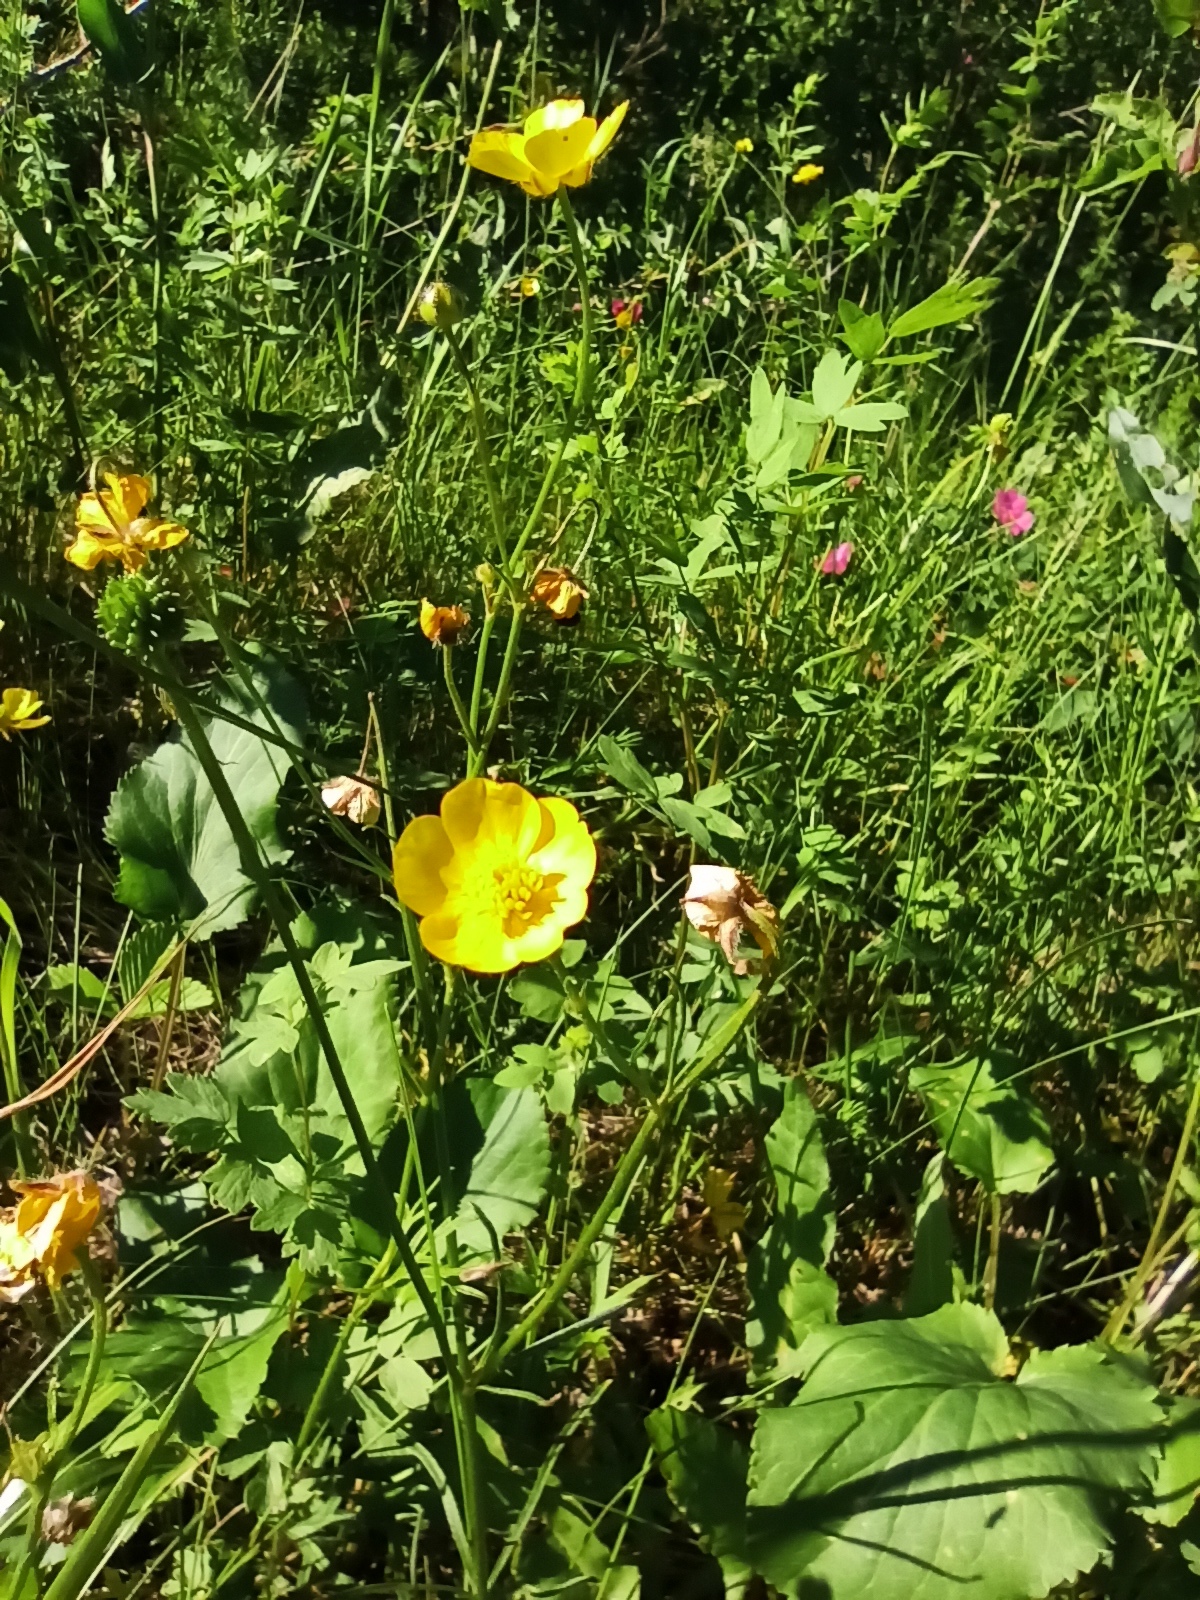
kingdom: Plantae
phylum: Tracheophyta
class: Magnoliopsida
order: Ranunculales
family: Ranunculaceae
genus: Ranunculus
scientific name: Ranunculus acris
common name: Meadow buttercup
